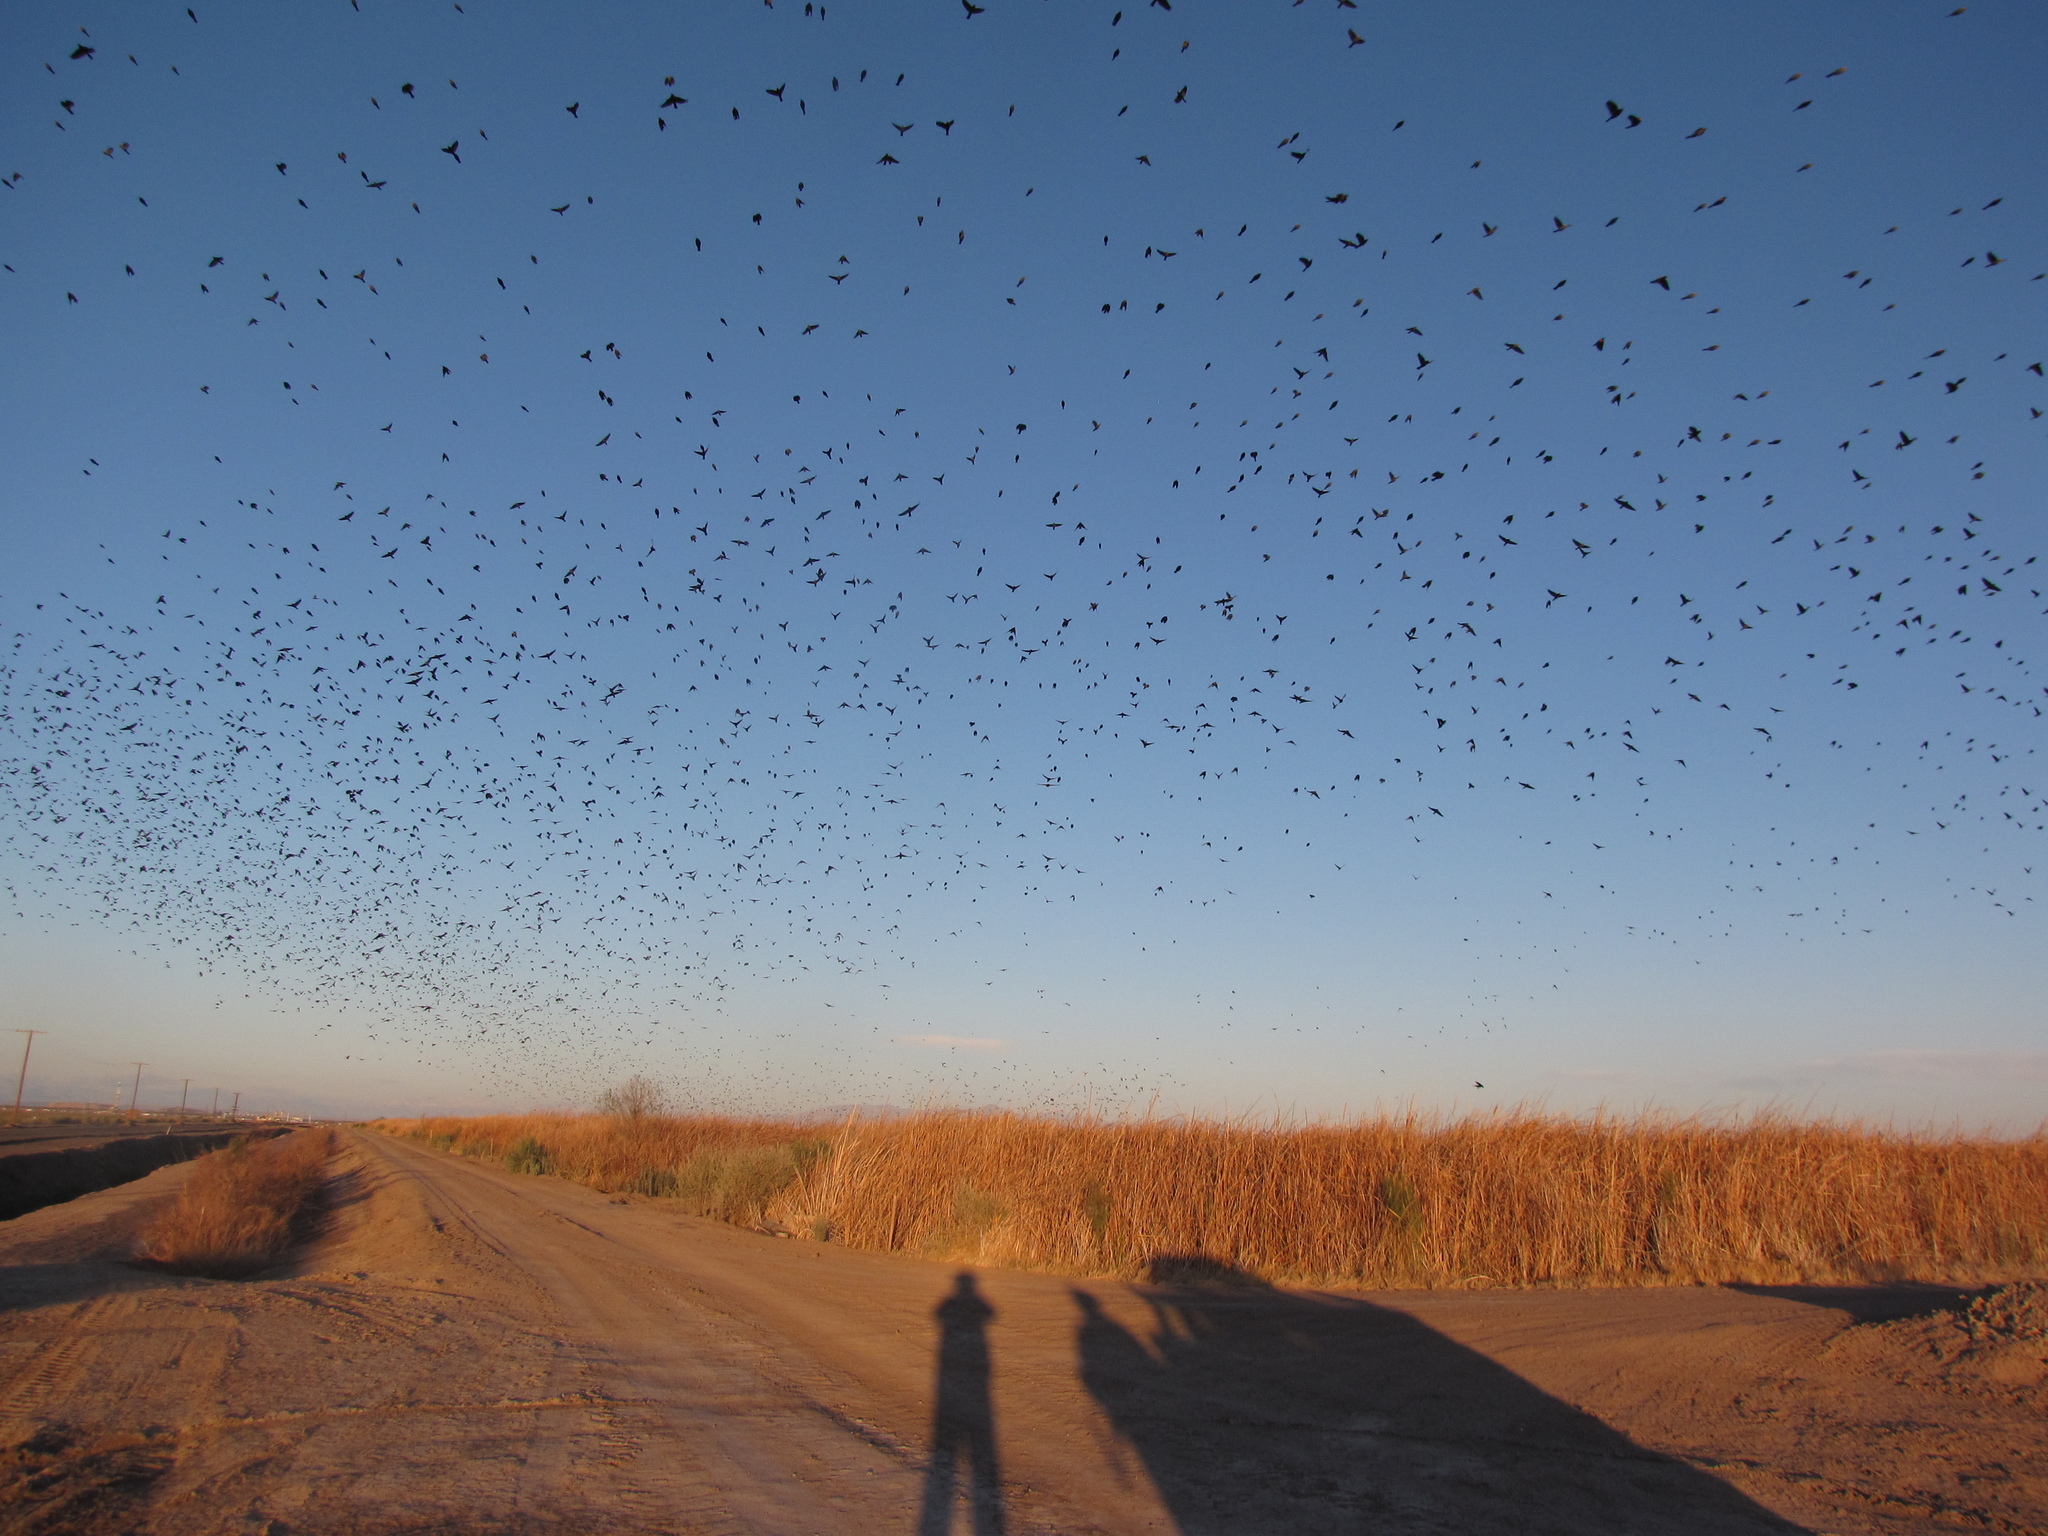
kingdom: Animalia
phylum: Chordata
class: Aves
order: Passeriformes
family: Icteridae
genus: Agelaius
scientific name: Agelaius phoeniceus
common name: Red-winged blackbird
